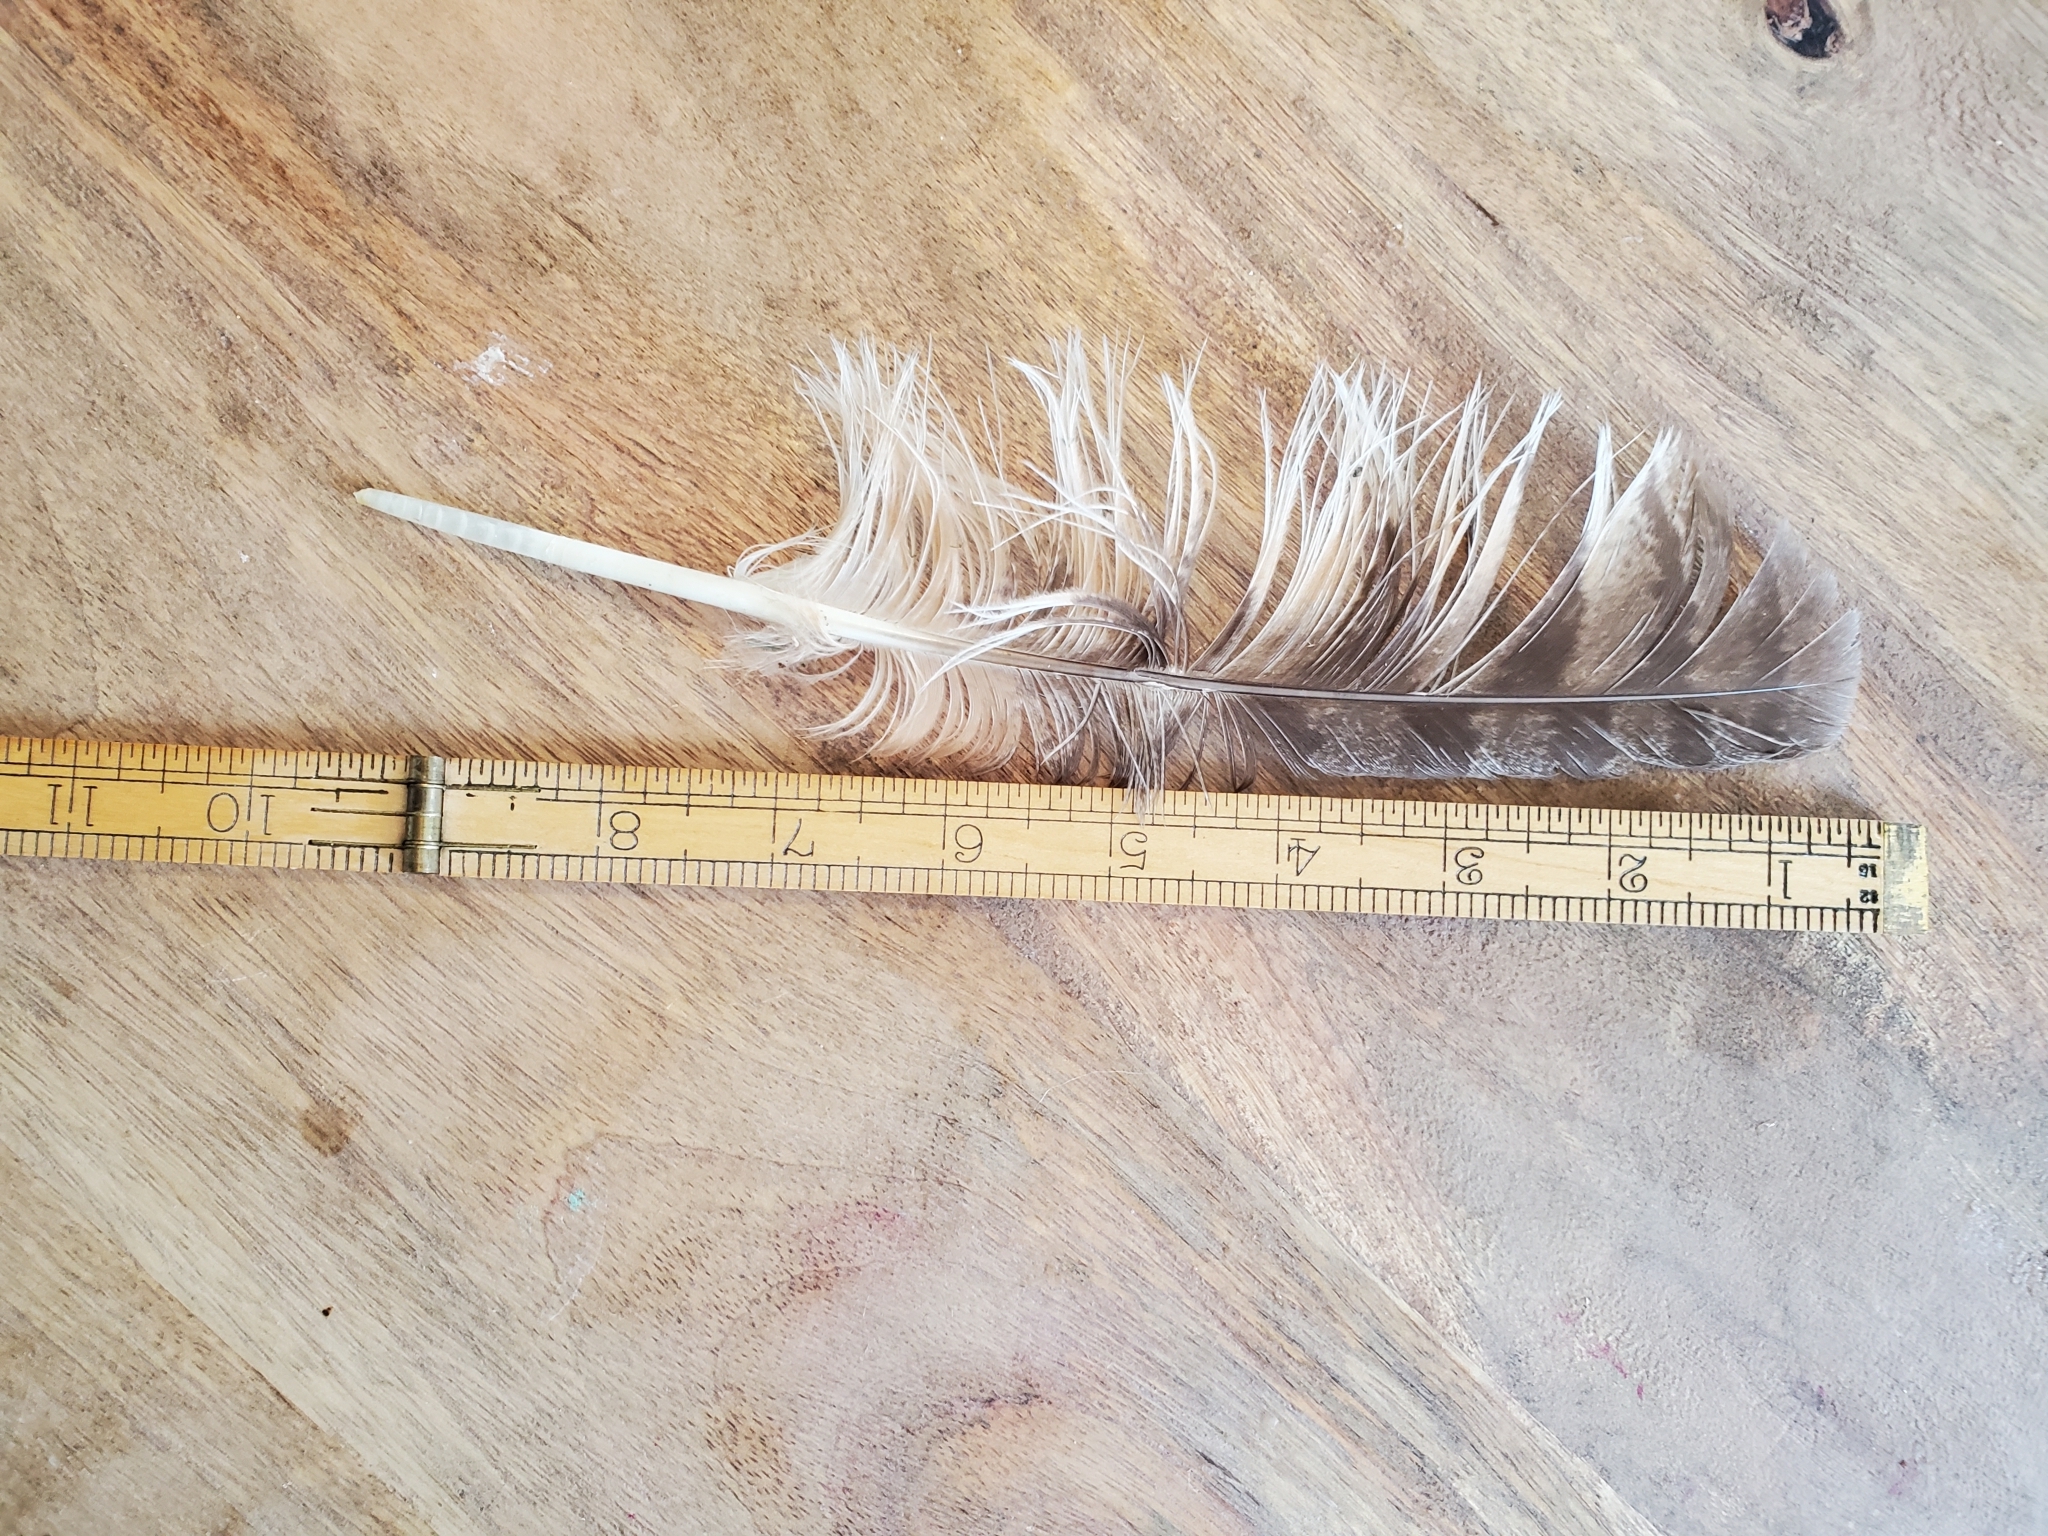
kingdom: Animalia
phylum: Chordata
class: Aves
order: Strigiformes
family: Strigidae
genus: Bubo
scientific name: Bubo virginianus
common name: Great horned owl
